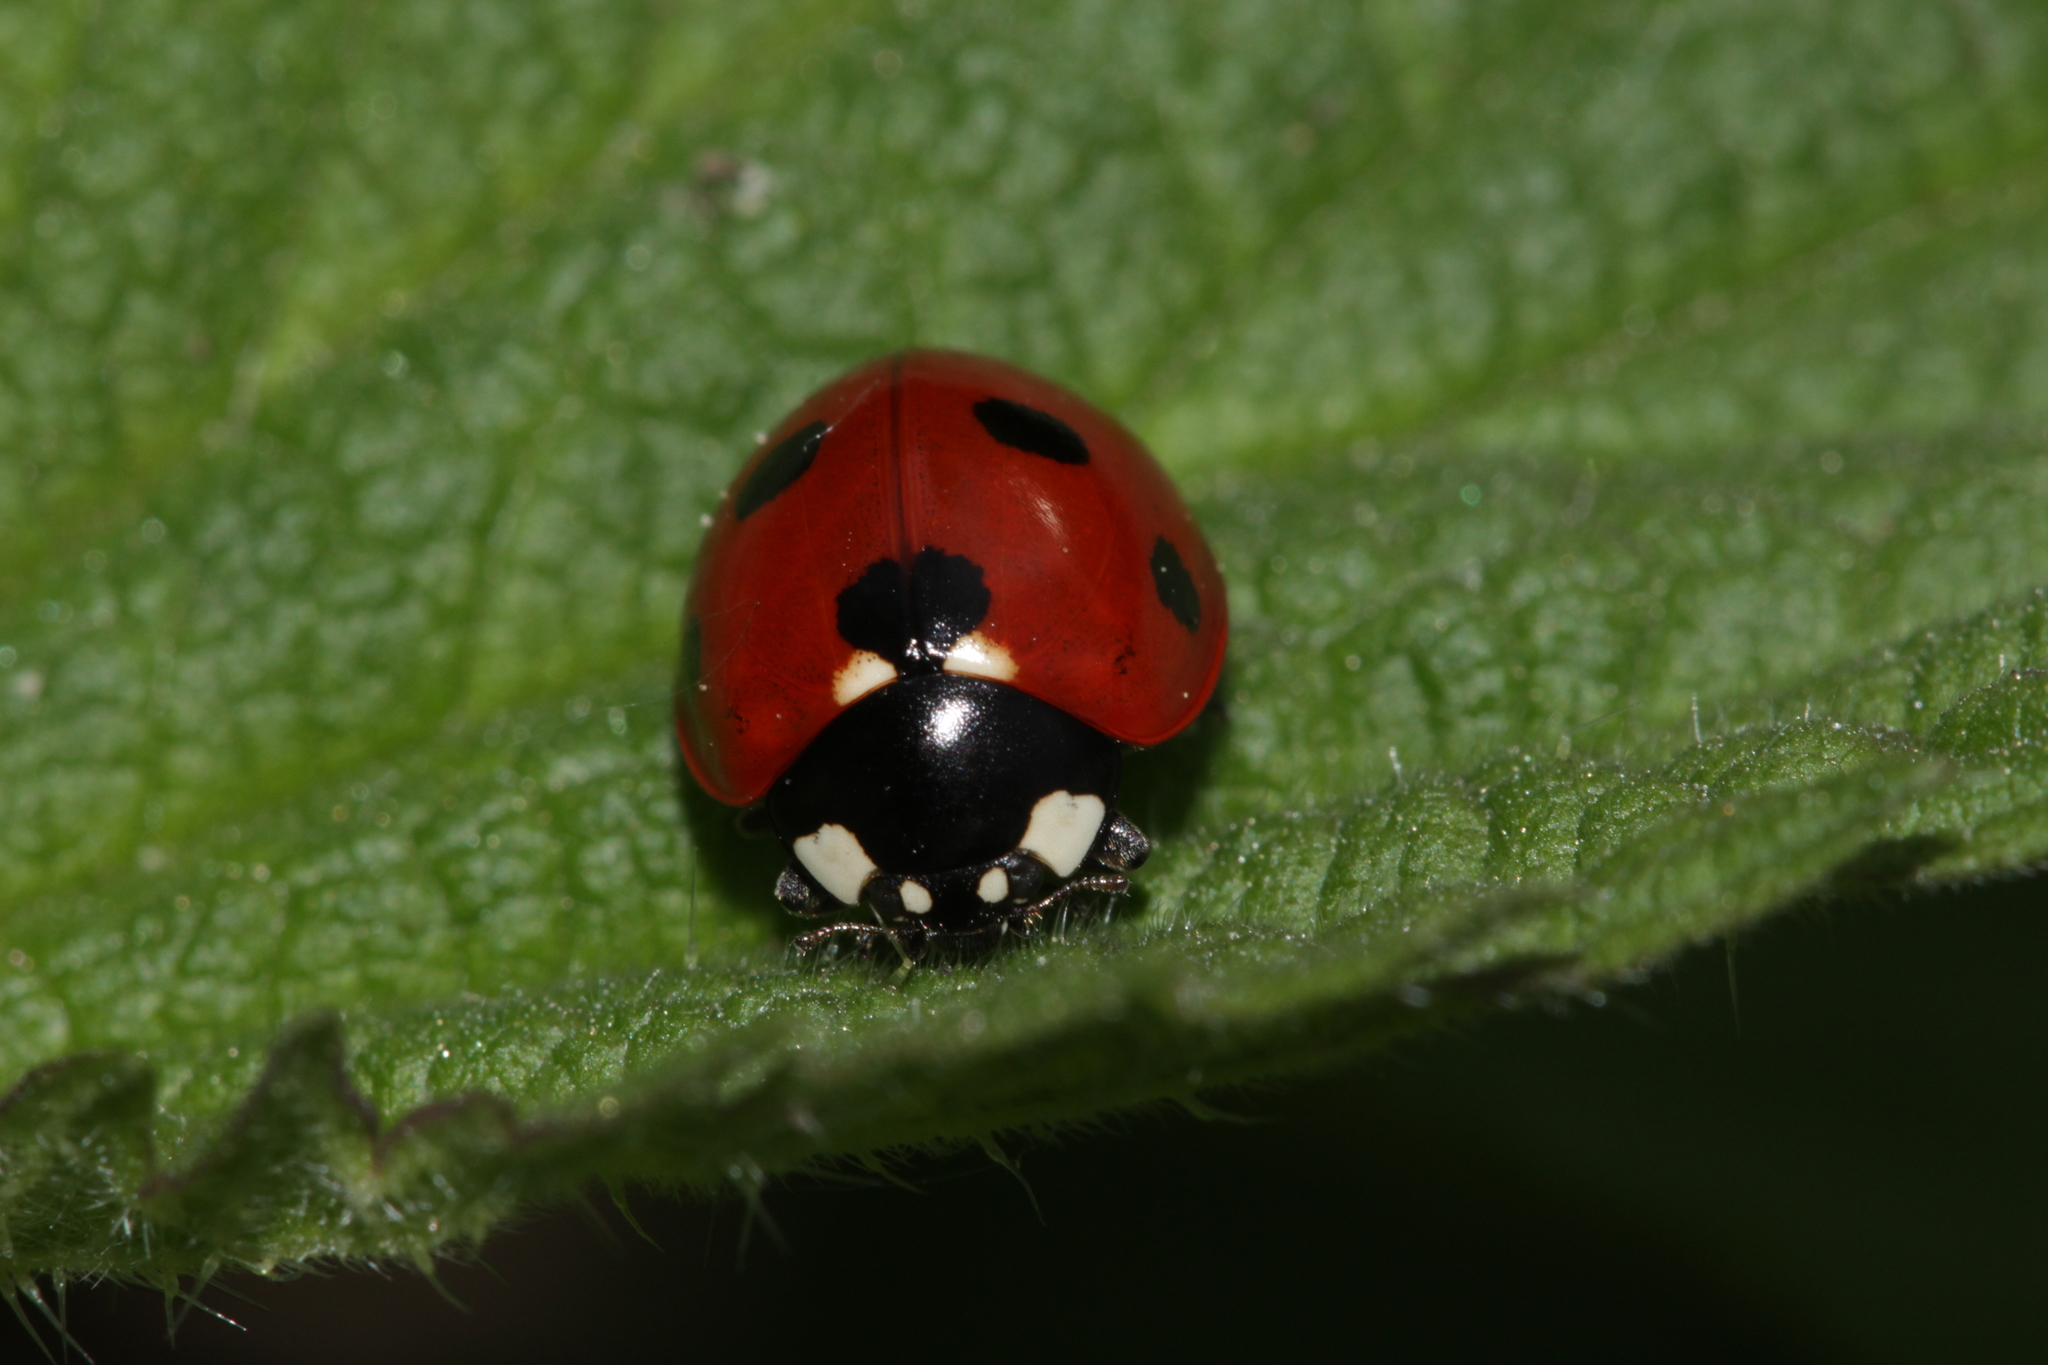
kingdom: Animalia
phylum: Arthropoda
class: Insecta
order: Coleoptera
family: Coccinellidae
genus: Coccinella
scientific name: Coccinella septempunctata
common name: Sevenspotted lady beetle
